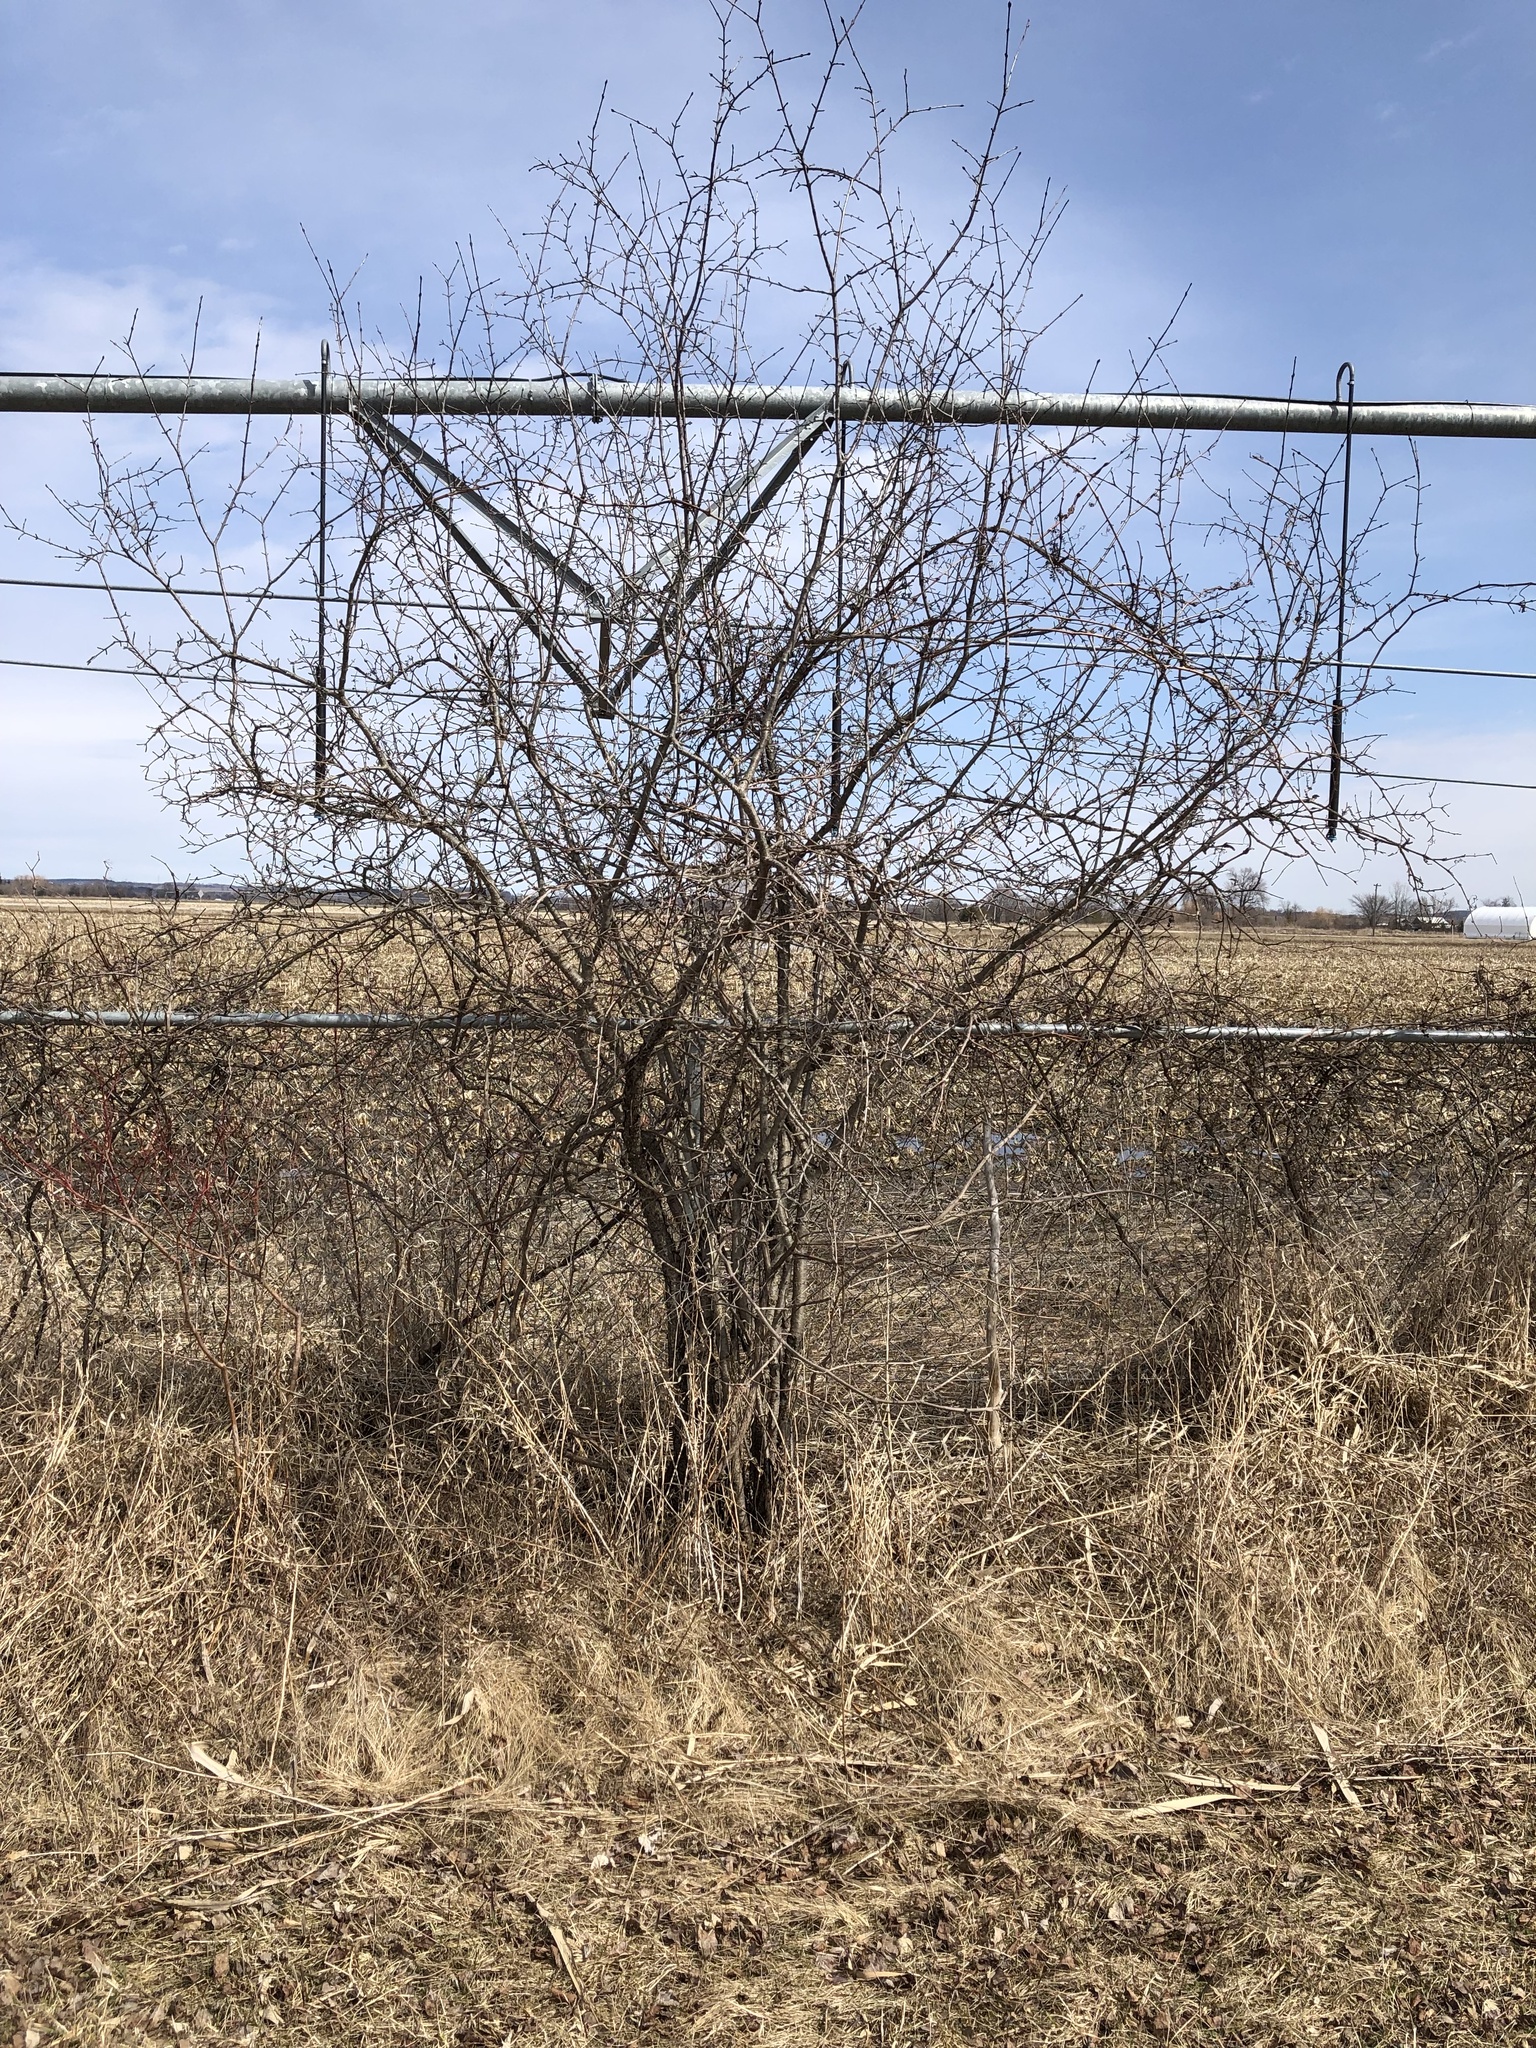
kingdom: Plantae
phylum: Tracheophyta
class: Magnoliopsida
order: Rosales
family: Rhamnaceae
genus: Rhamnus
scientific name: Rhamnus cathartica
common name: Common buckthorn
